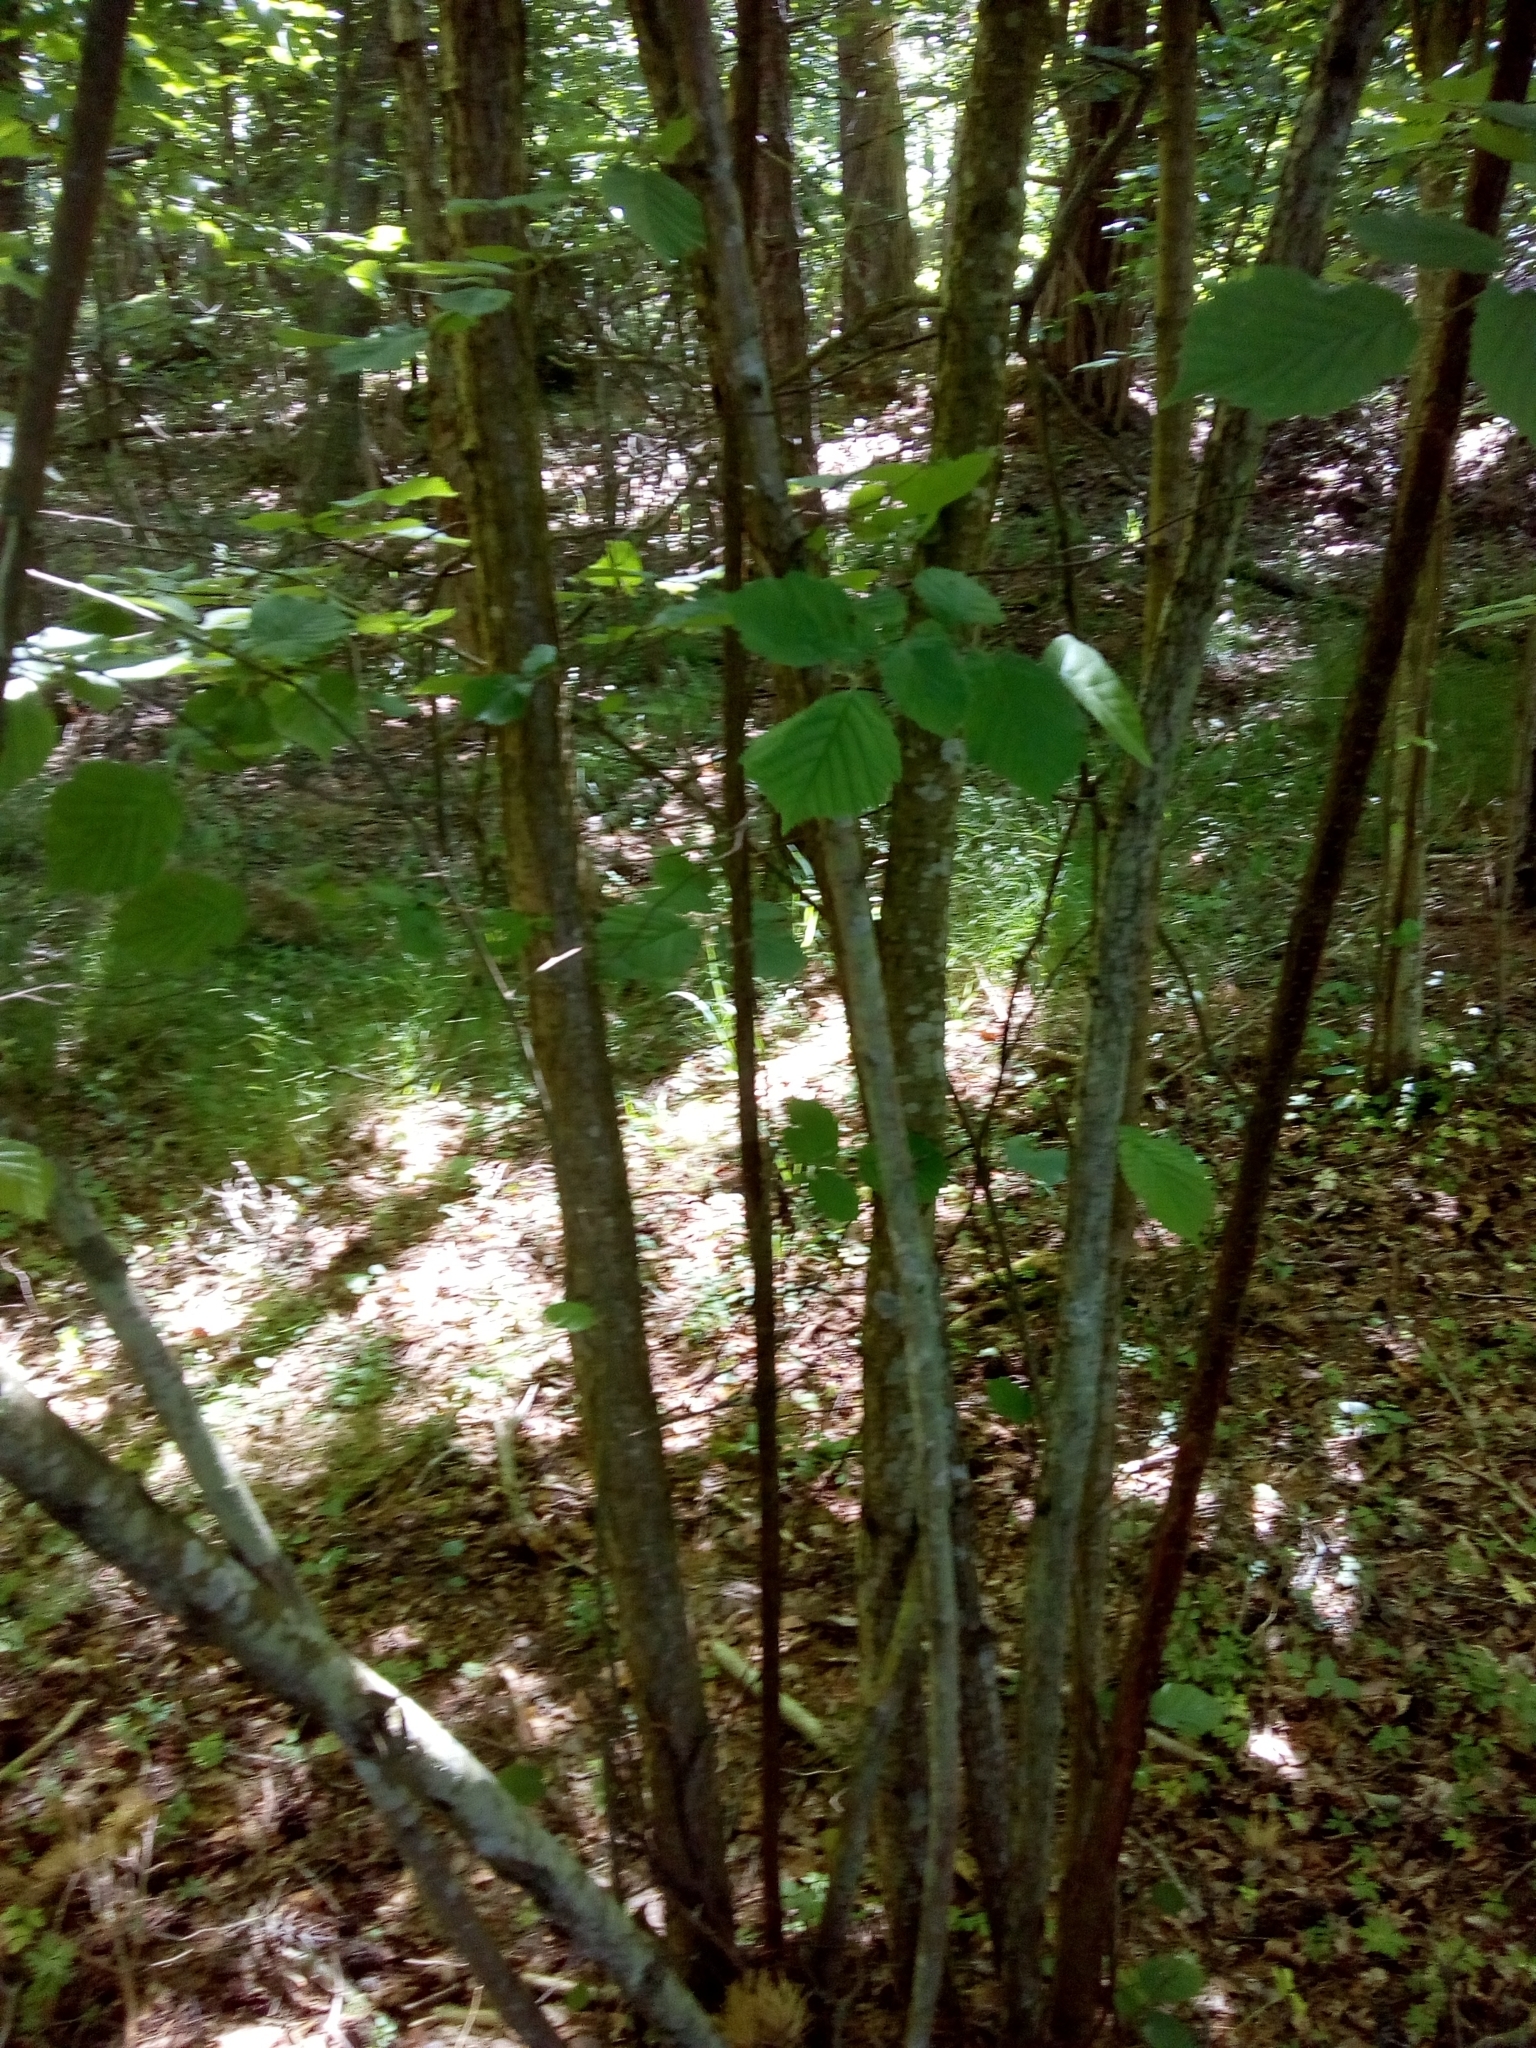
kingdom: Plantae
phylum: Tracheophyta
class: Magnoliopsida
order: Fagales
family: Betulaceae
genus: Corylus
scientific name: Corylus avellana
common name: European hazel
